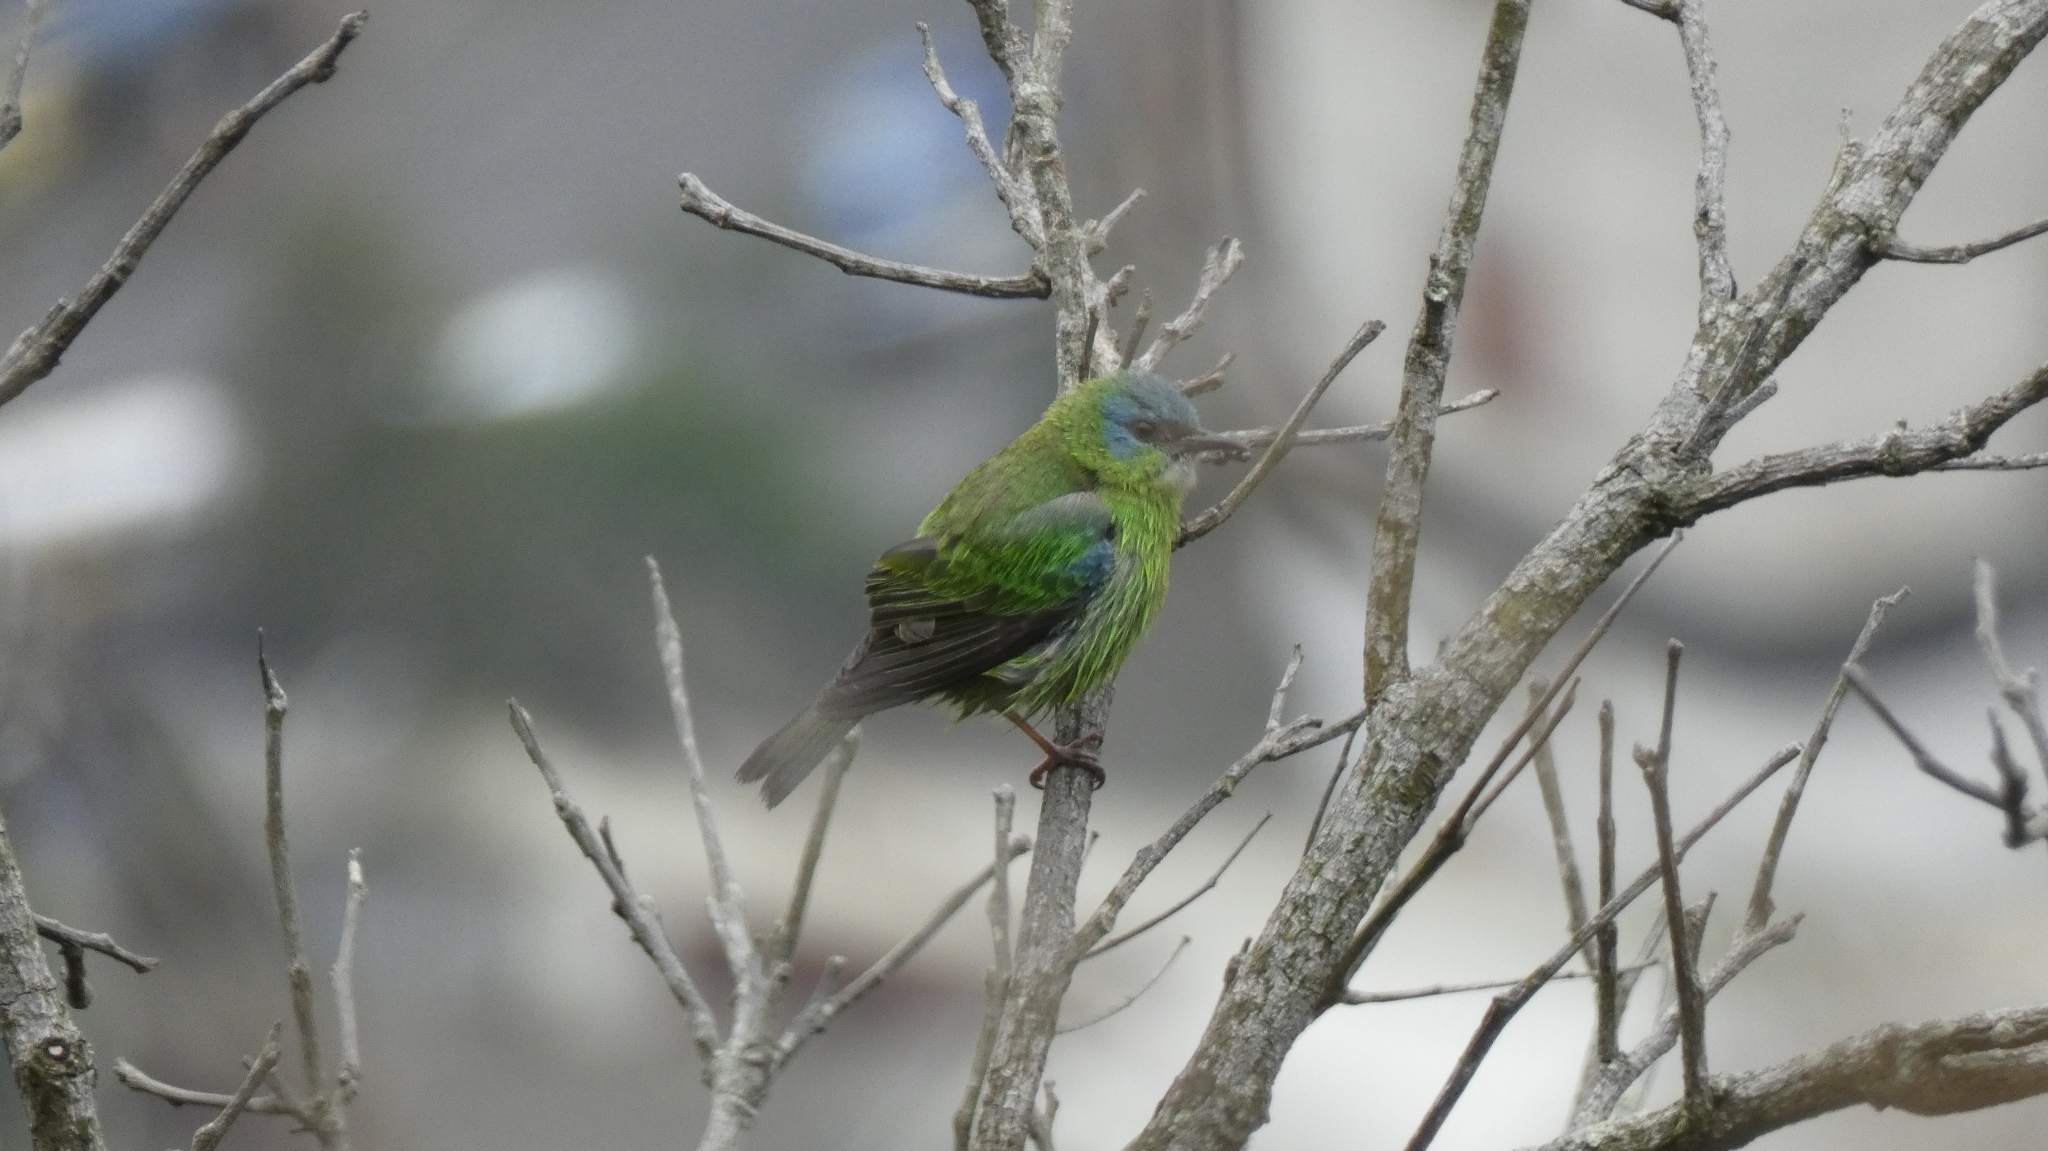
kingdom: Animalia
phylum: Chordata
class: Aves
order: Passeriformes
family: Thraupidae
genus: Dacnis
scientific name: Dacnis cayana
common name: Blue dacnis
